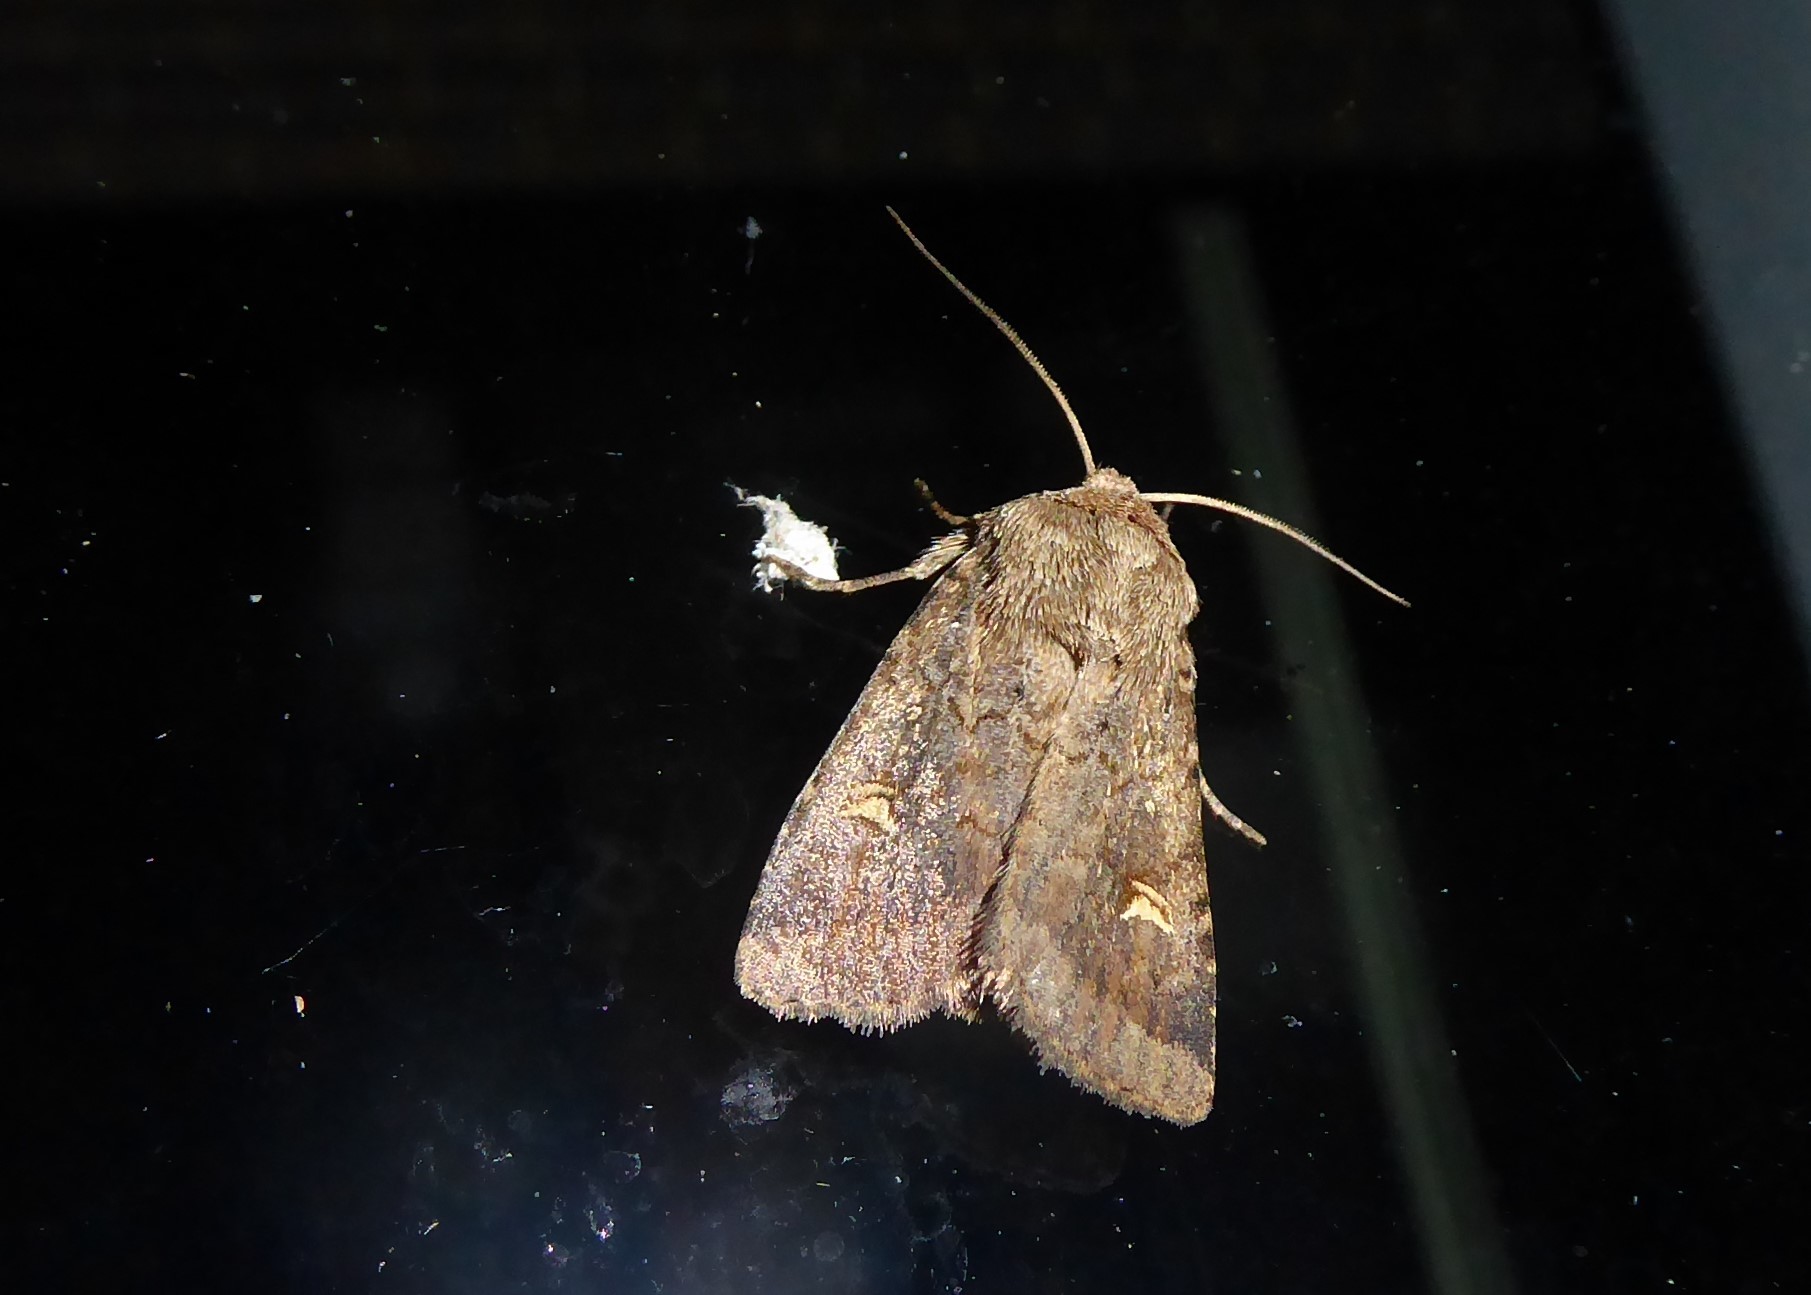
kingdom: Animalia
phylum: Arthropoda
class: Insecta
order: Lepidoptera
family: Noctuidae
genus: Proteuxoa
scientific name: Proteuxoa tetronycha
